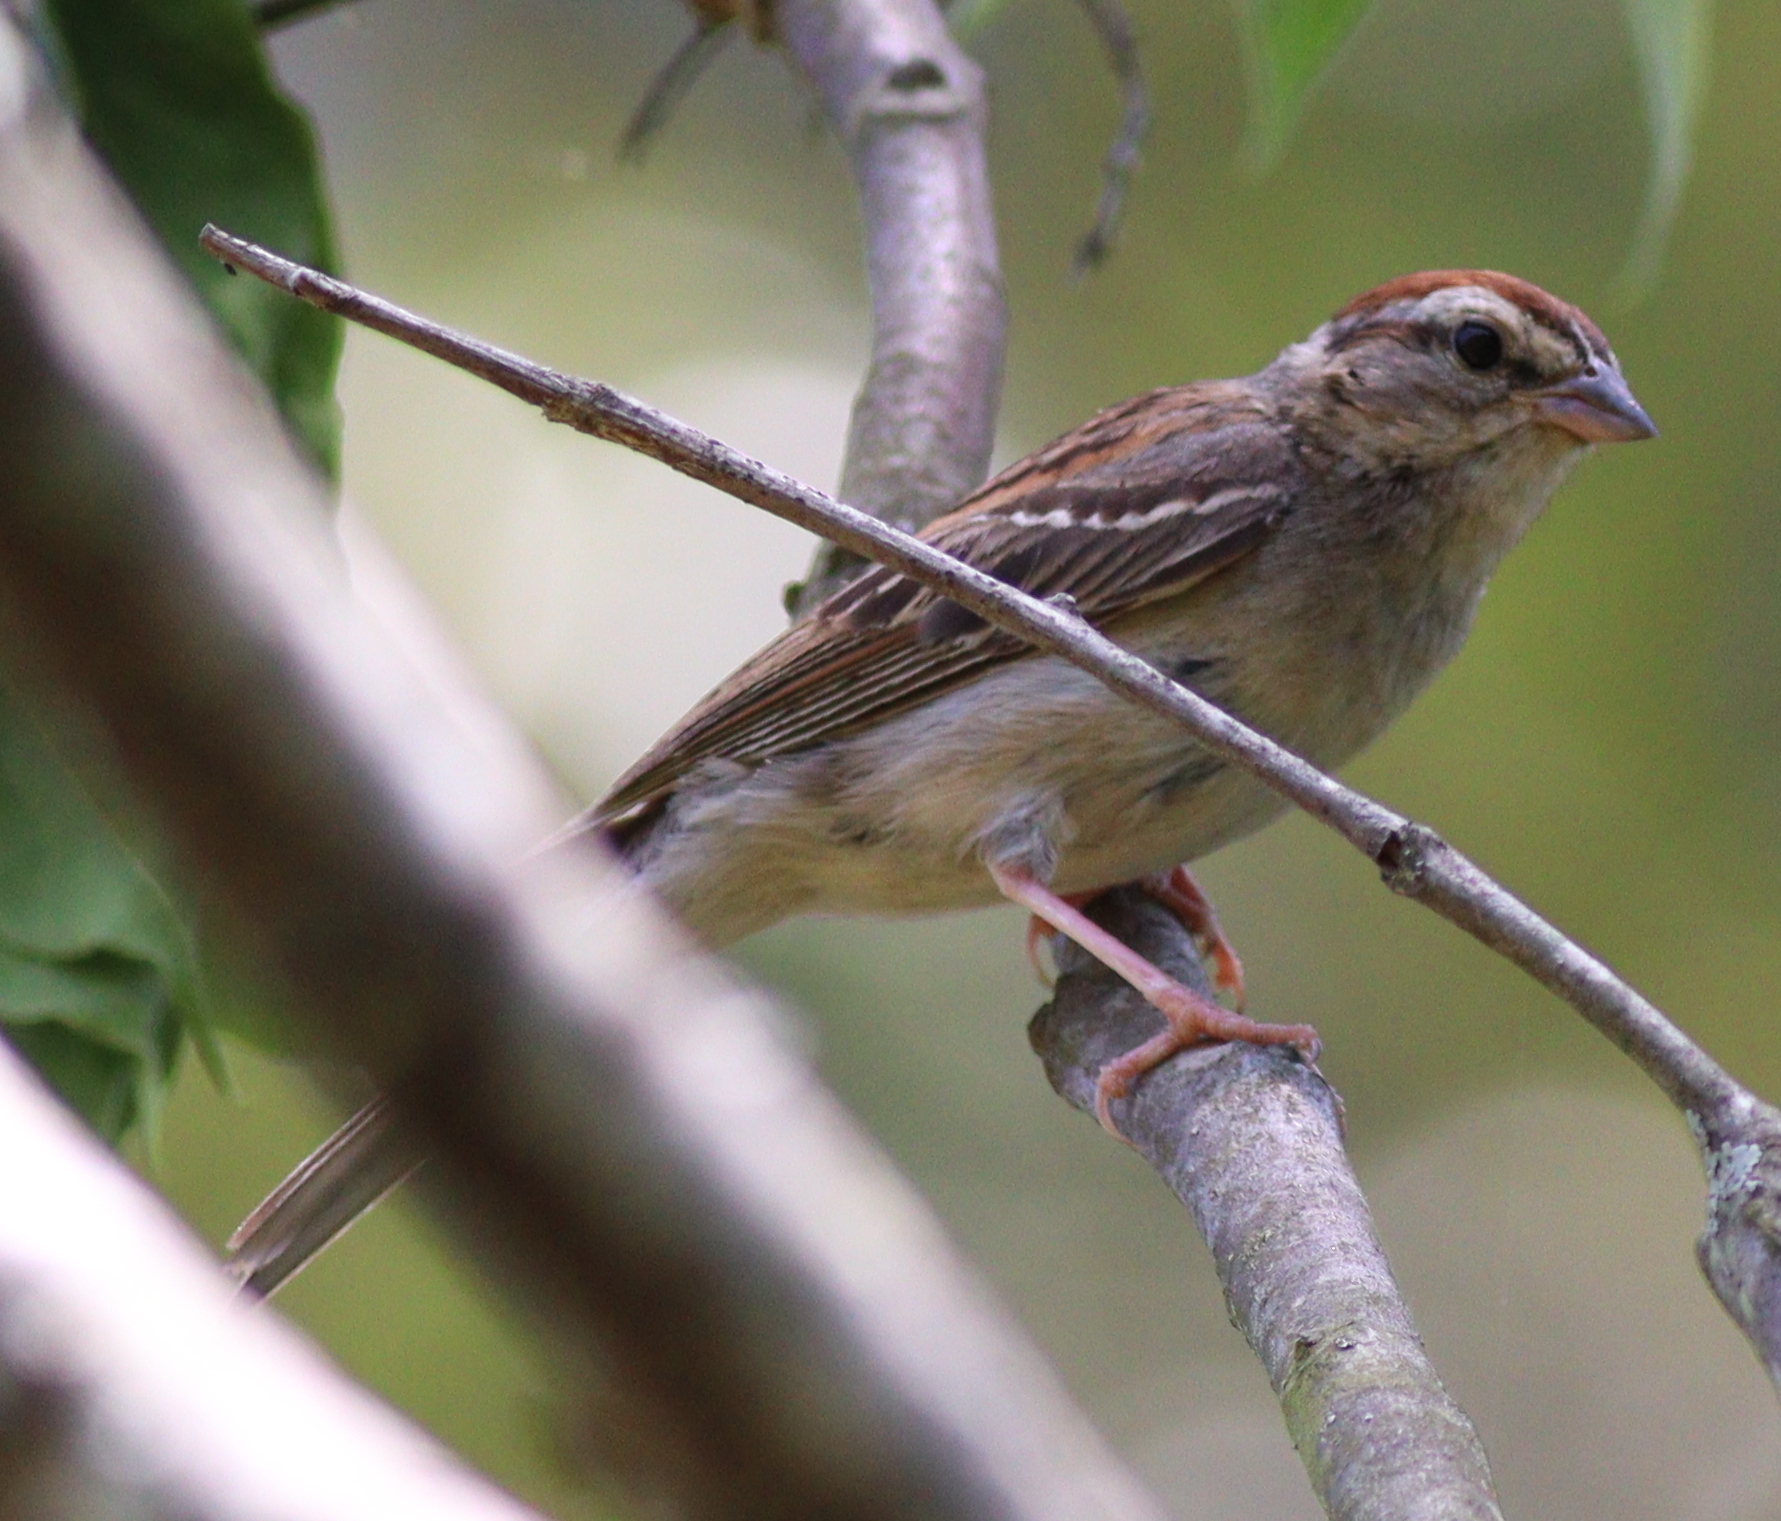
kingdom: Animalia
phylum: Chordata
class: Aves
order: Passeriformes
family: Passerellidae
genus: Spizella
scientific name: Spizella passerina
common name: Chipping sparrow
